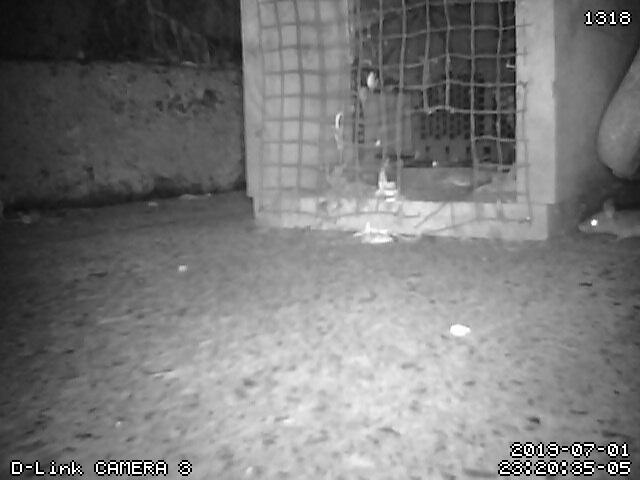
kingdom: Animalia
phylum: Chordata
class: Mammalia
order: Rodentia
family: Muridae
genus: Mus
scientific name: Mus musculus
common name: House mouse
